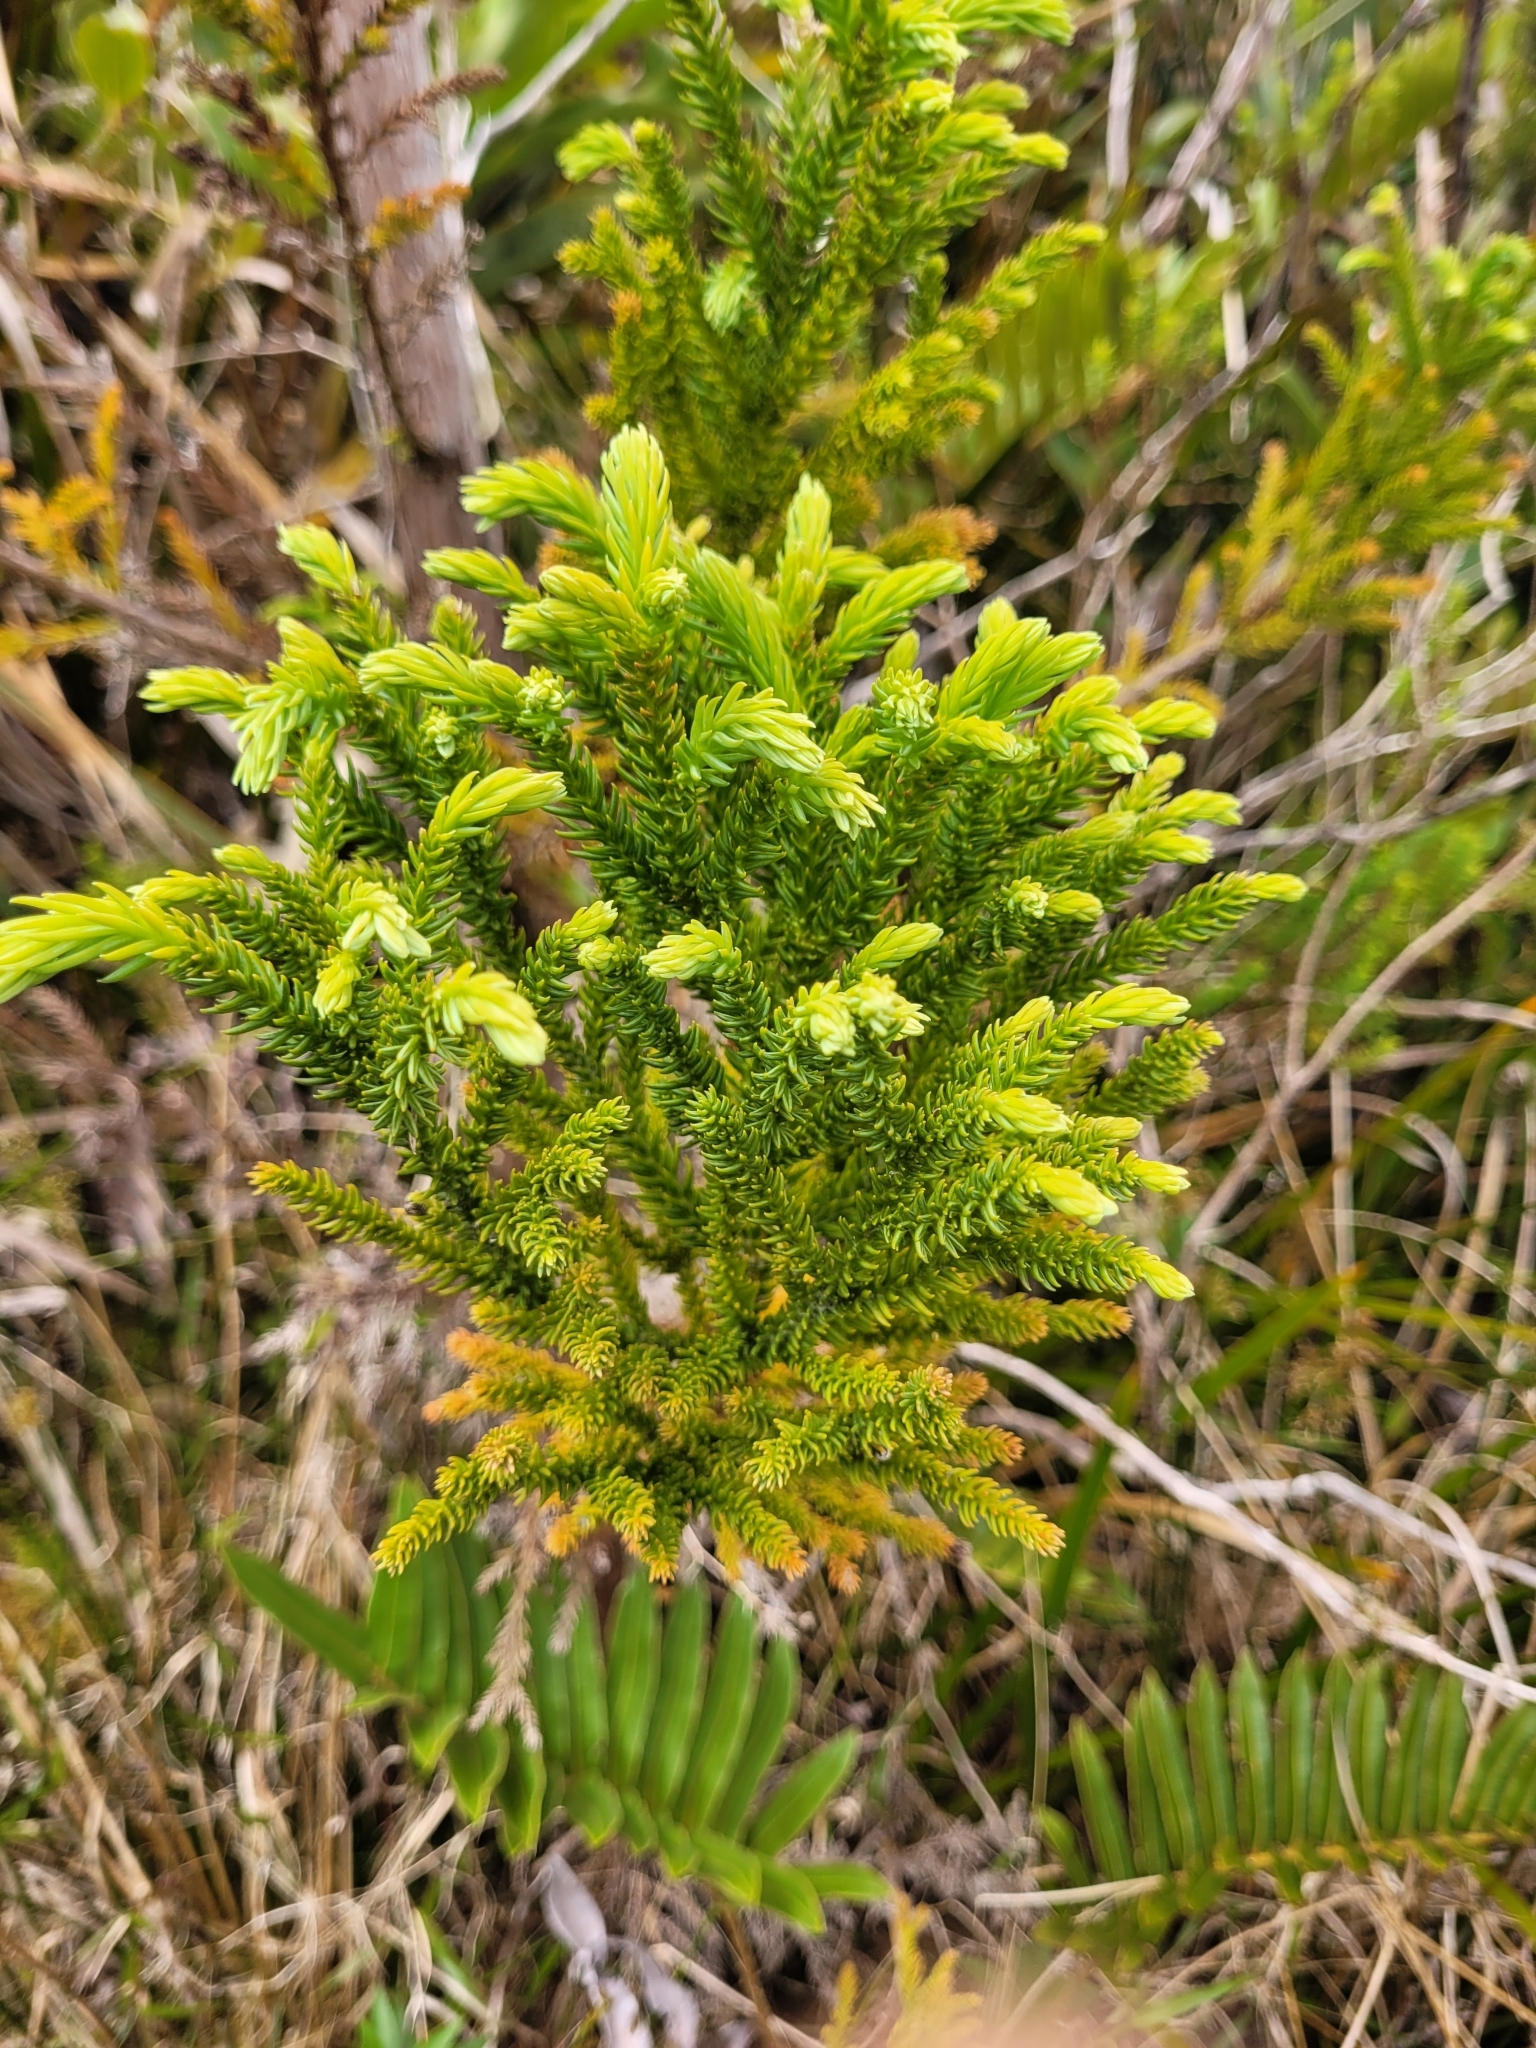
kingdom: Plantae
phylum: Tracheophyta
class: Pinopsida
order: Pinales
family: Cupressaceae
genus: Cryptomeria
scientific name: Cryptomeria japonica
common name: Japanese cedar
